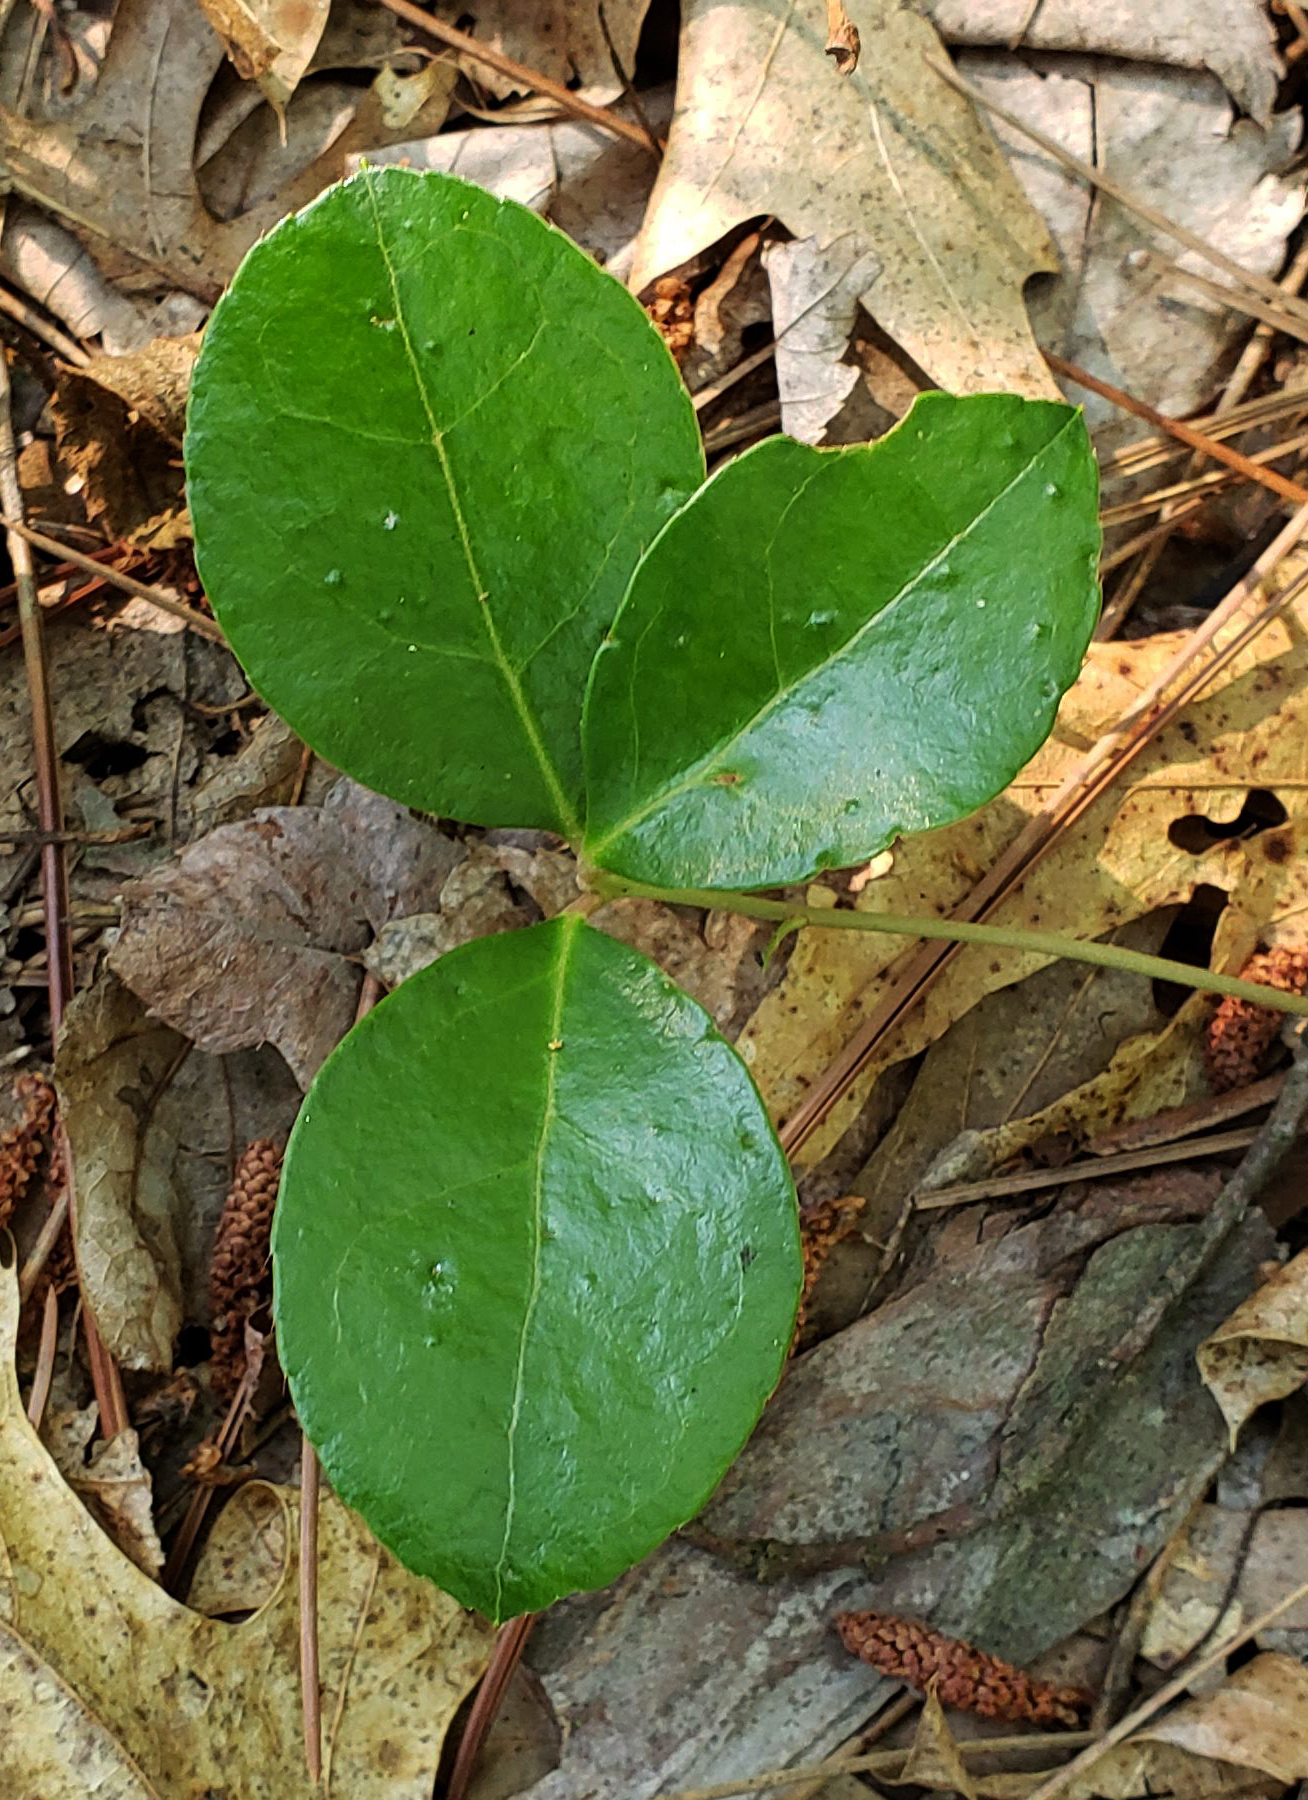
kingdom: Plantae
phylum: Tracheophyta
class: Magnoliopsida
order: Ericales
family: Ericaceae
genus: Gaultheria
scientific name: Gaultheria procumbens
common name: Checkerberry
